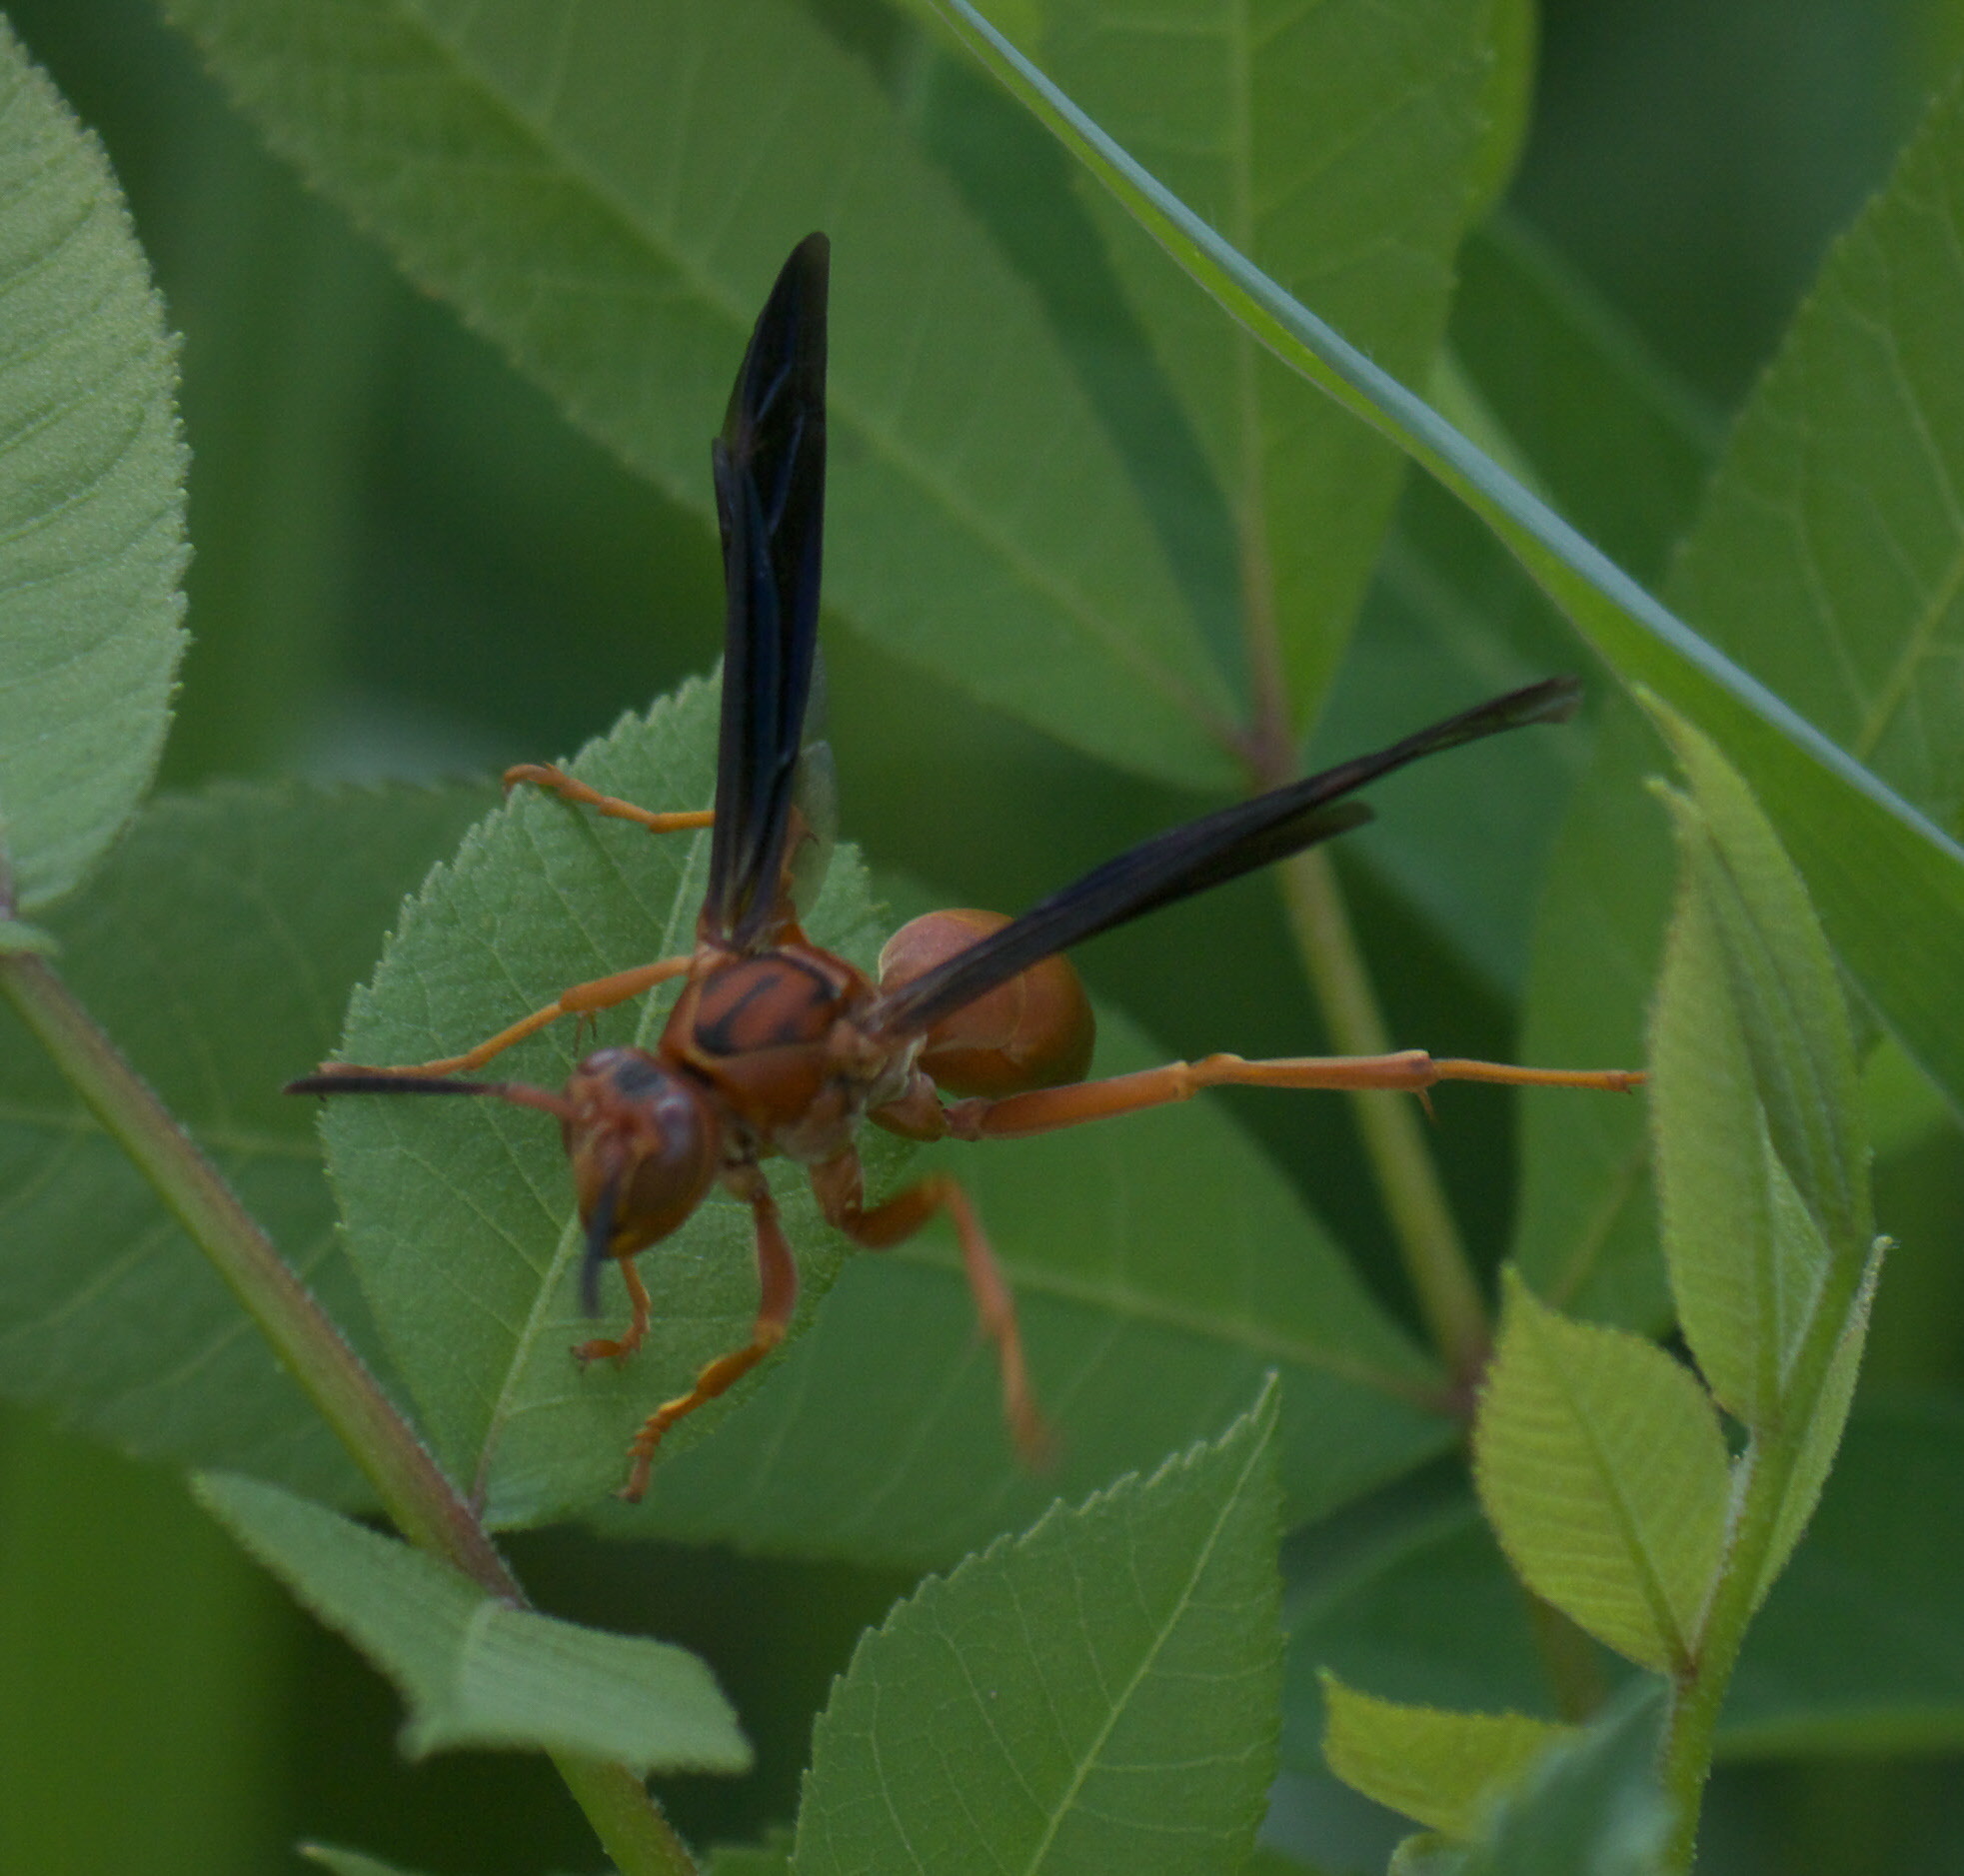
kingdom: Animalia
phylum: Arthropoda
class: Insecta
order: Hymenoptera
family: Eumenidae
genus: Polistes
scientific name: Polistes carolina
